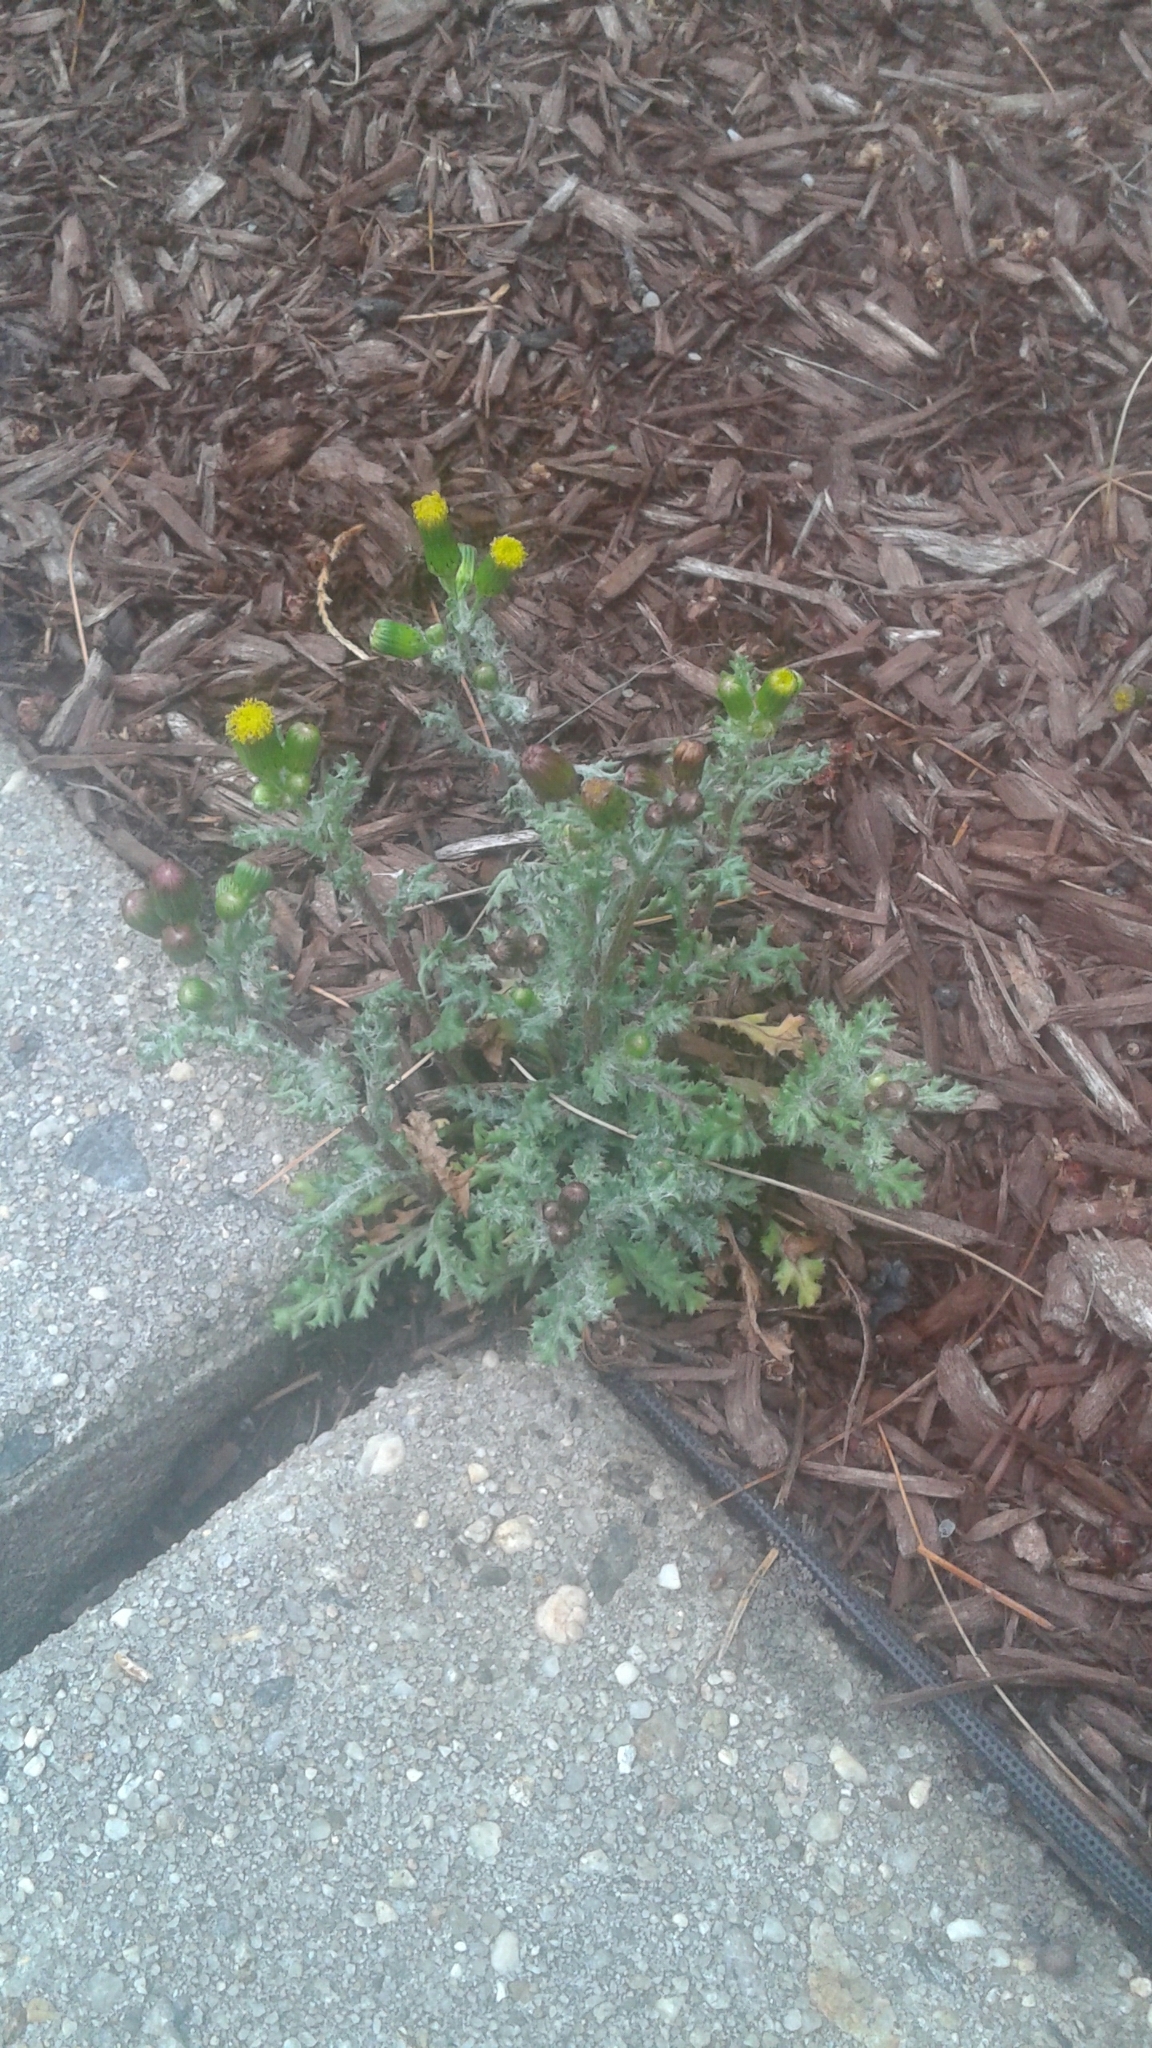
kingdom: Plantae
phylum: Tracheophyta
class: Magnoliopsida
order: Asterales
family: Asteraceae
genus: Senecio
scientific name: Senecio vulgaris
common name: Old-man-in-the-spring
